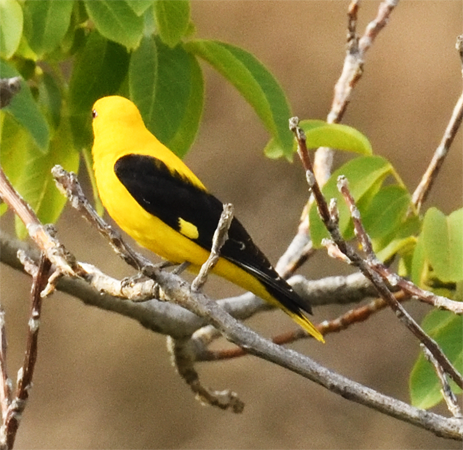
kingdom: Animalia
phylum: Chordata
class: Aves
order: Passeriformes
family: Oriolidae
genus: Oriolus
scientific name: Oriolus oriolus
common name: Eurasian golden oriole
